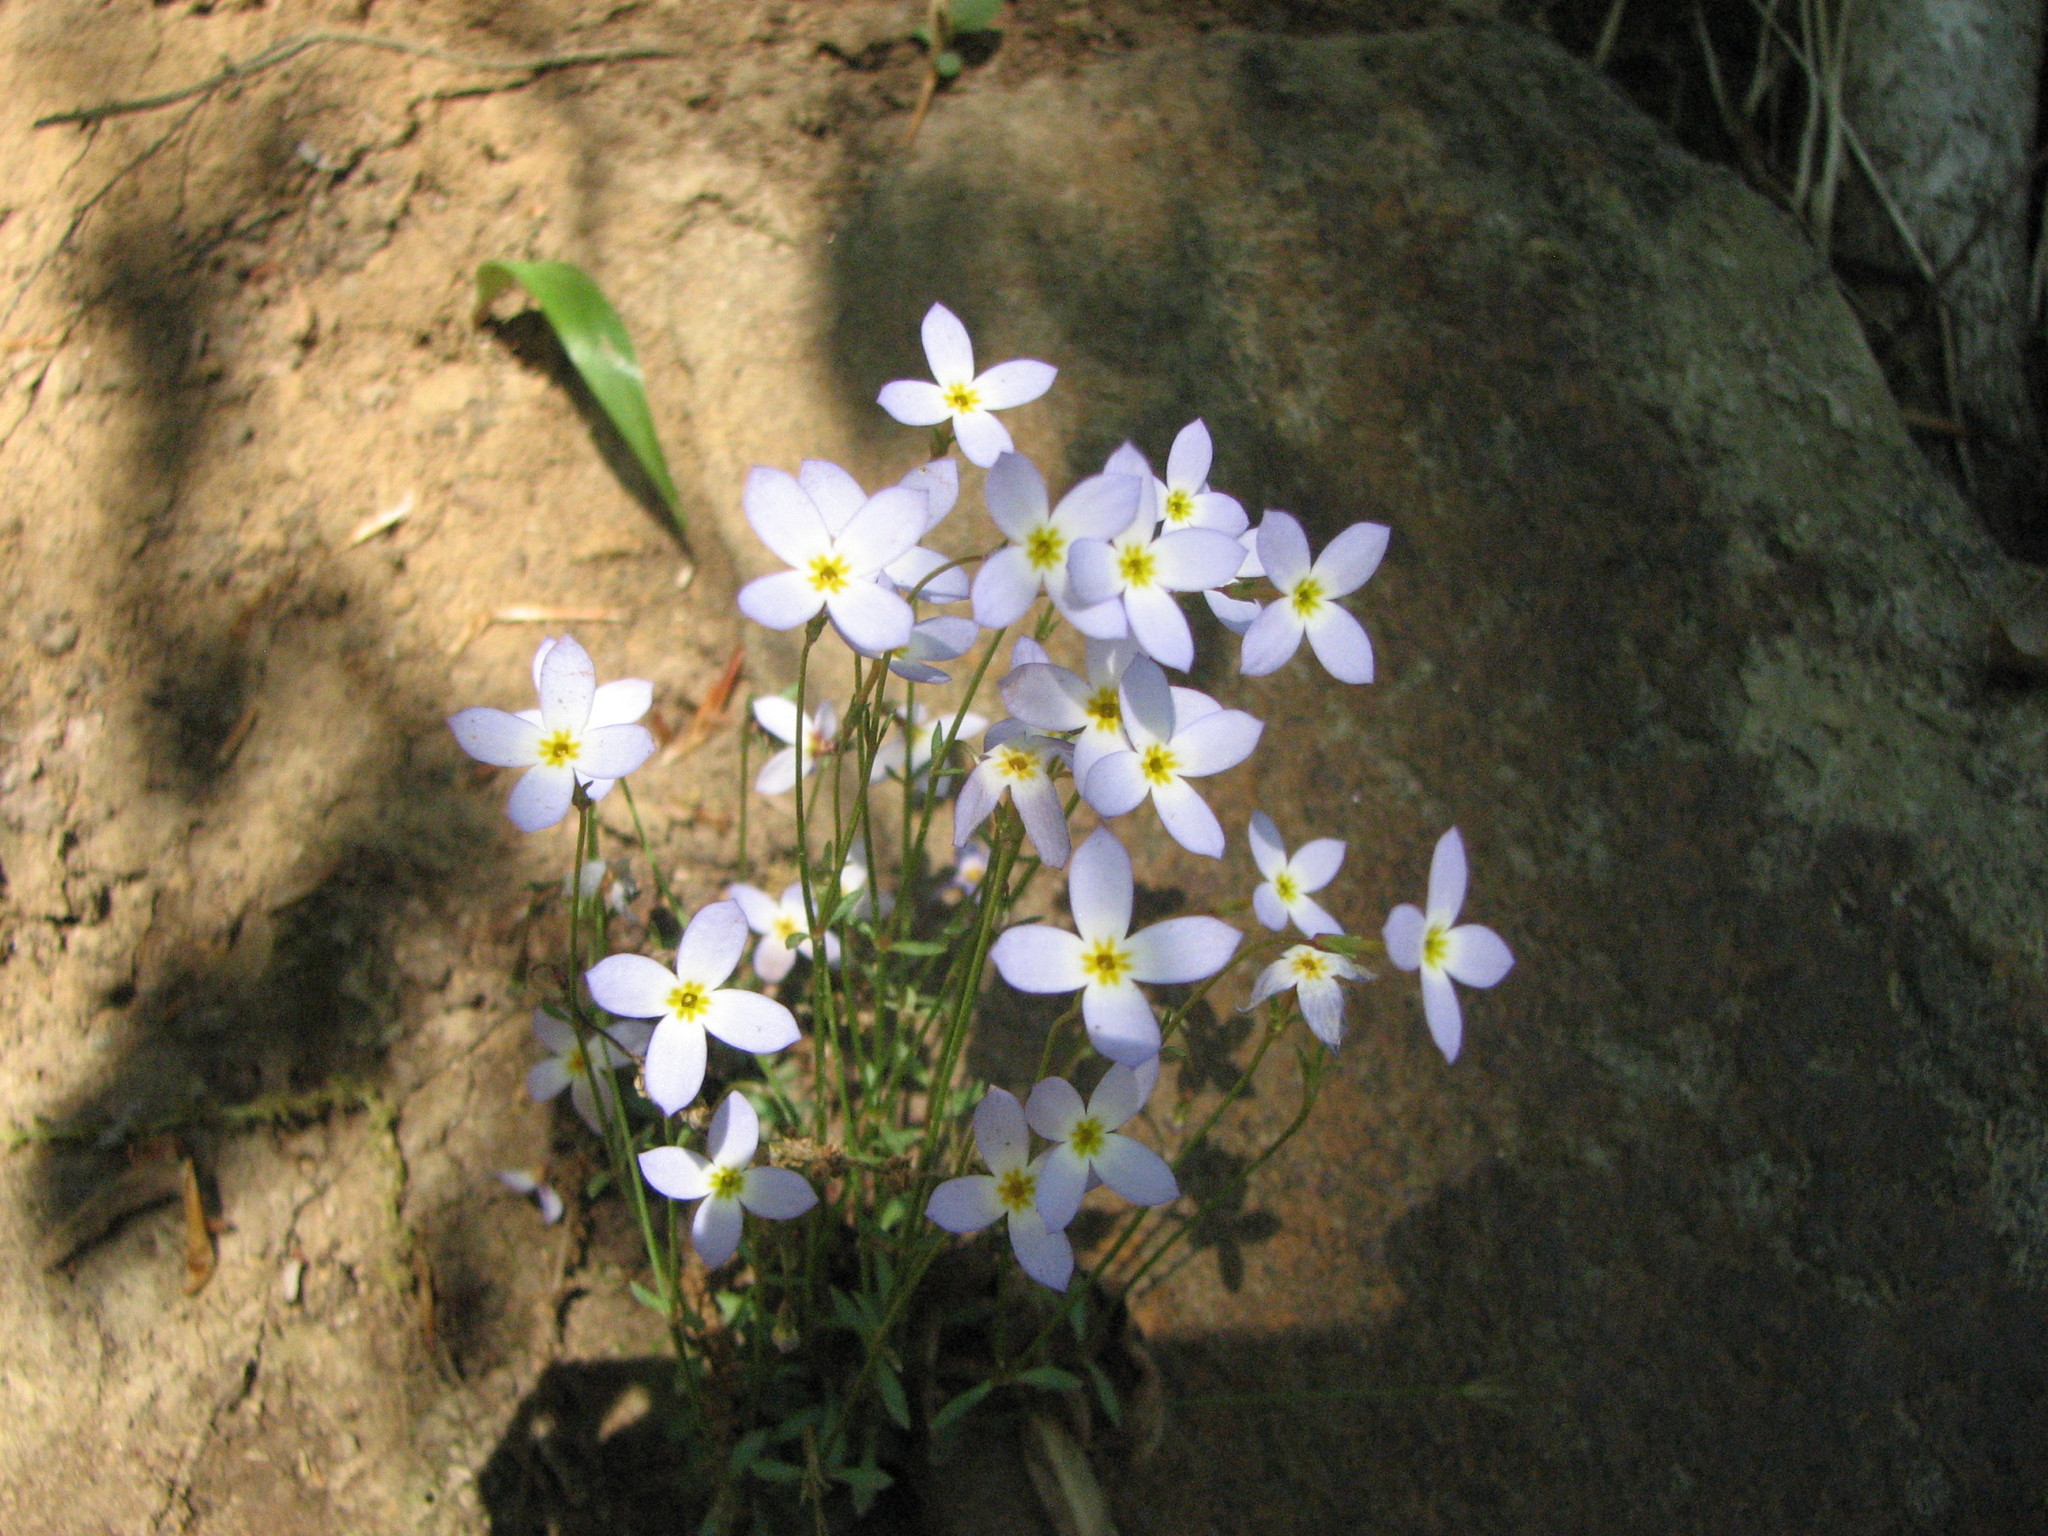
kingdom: Plantae
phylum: Tracheophyta
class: Magnoliopsida
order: Gentianales
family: Rubiaceae
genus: Houstonia
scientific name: Houstonia caerulea
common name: Bluets
